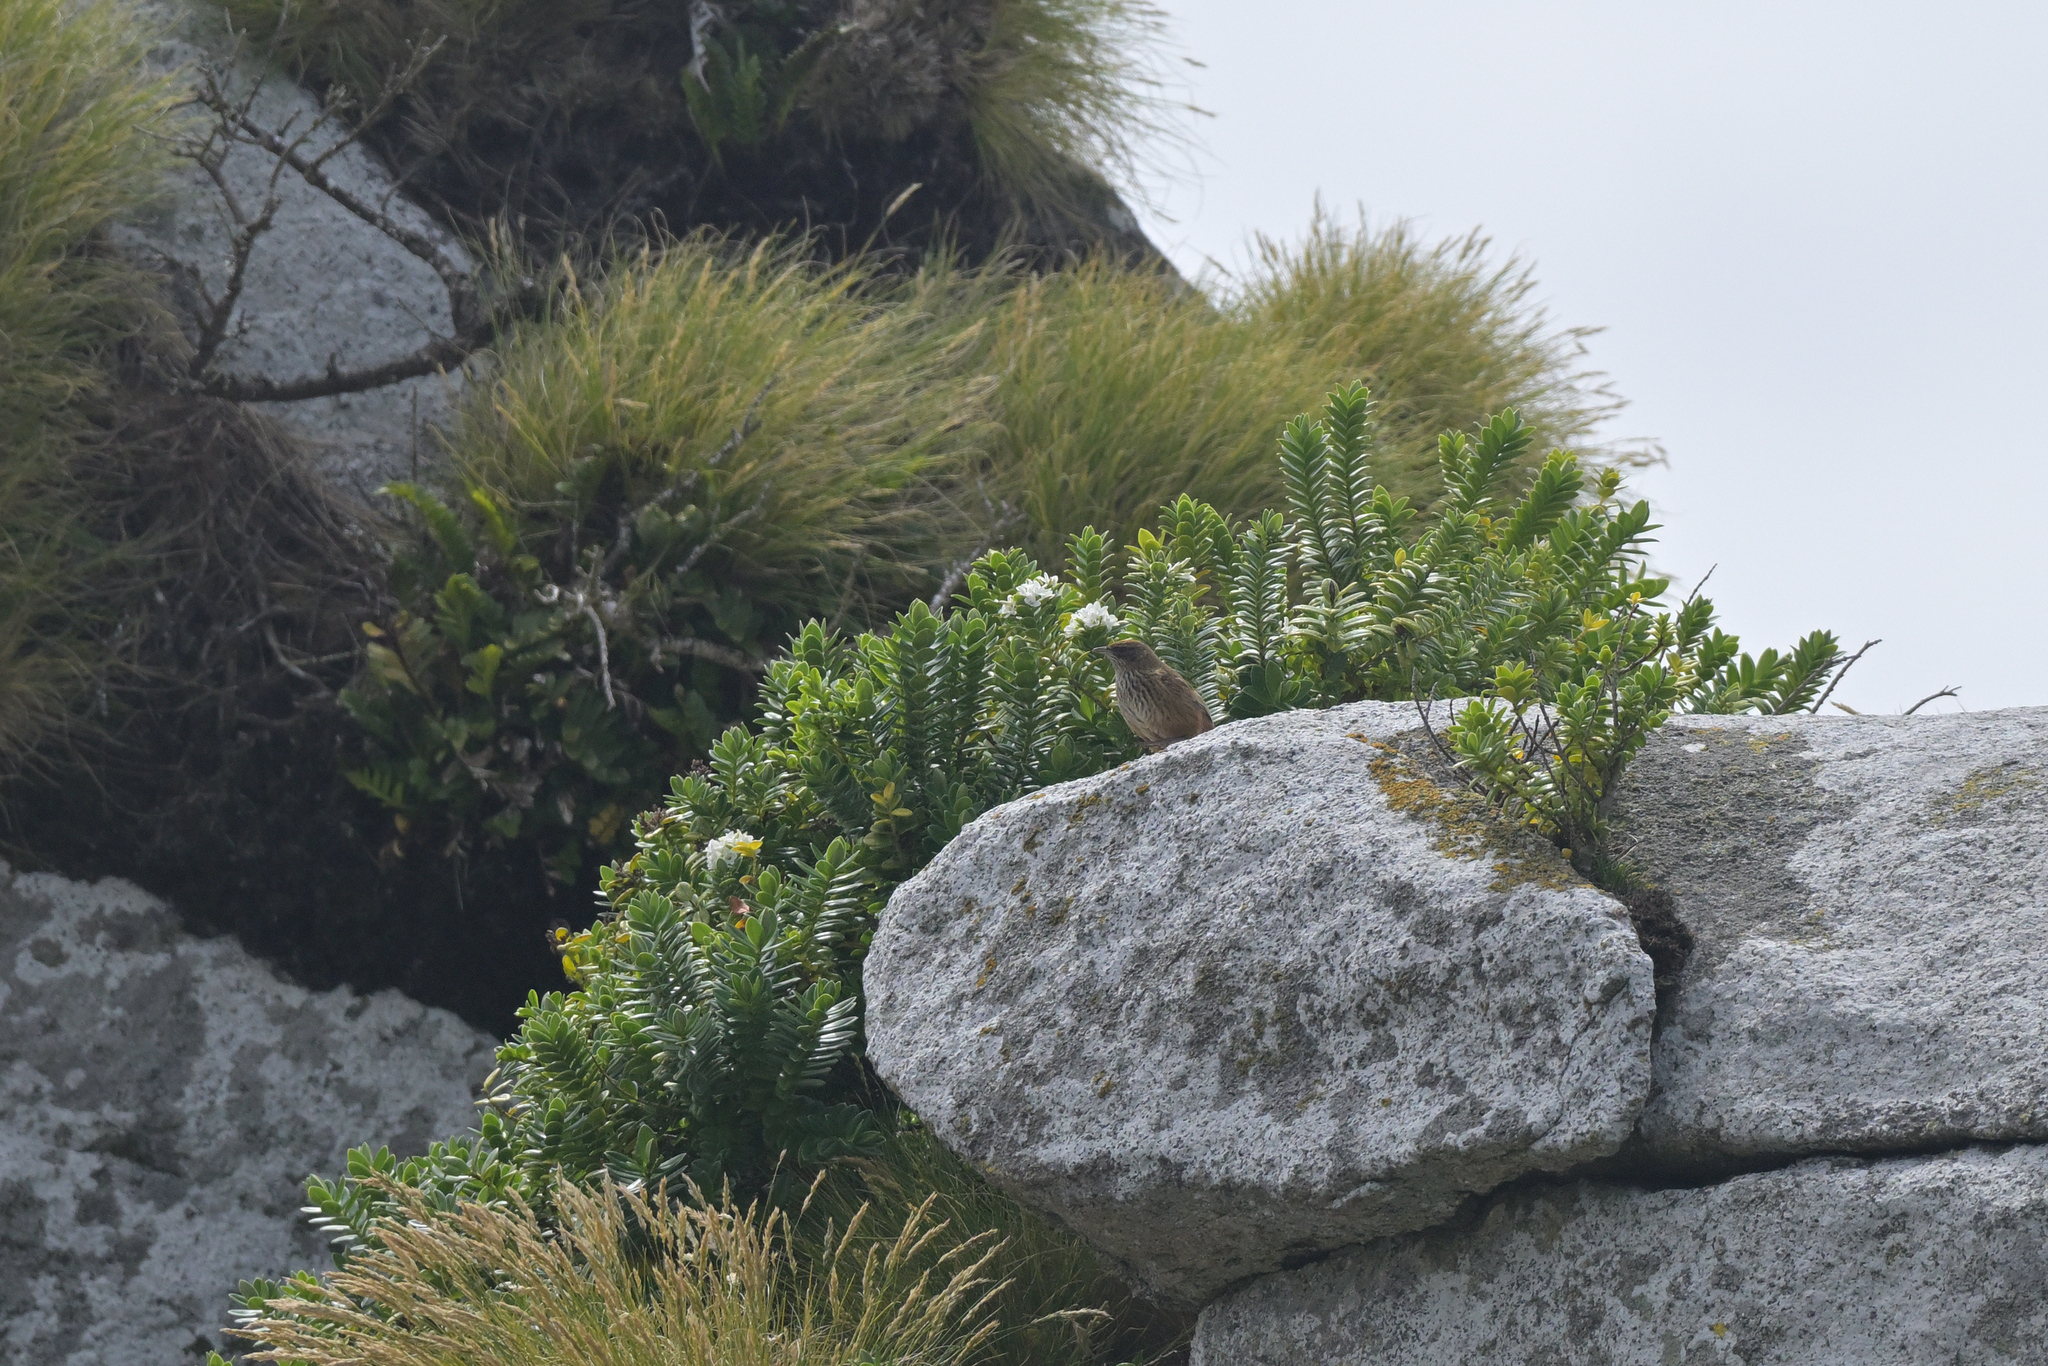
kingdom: Animalia
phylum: Chordata
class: Aves
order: Passeriformes
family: Locustellidae
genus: Megalurus
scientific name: Megalurus punctatus
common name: New zealand fernbird
